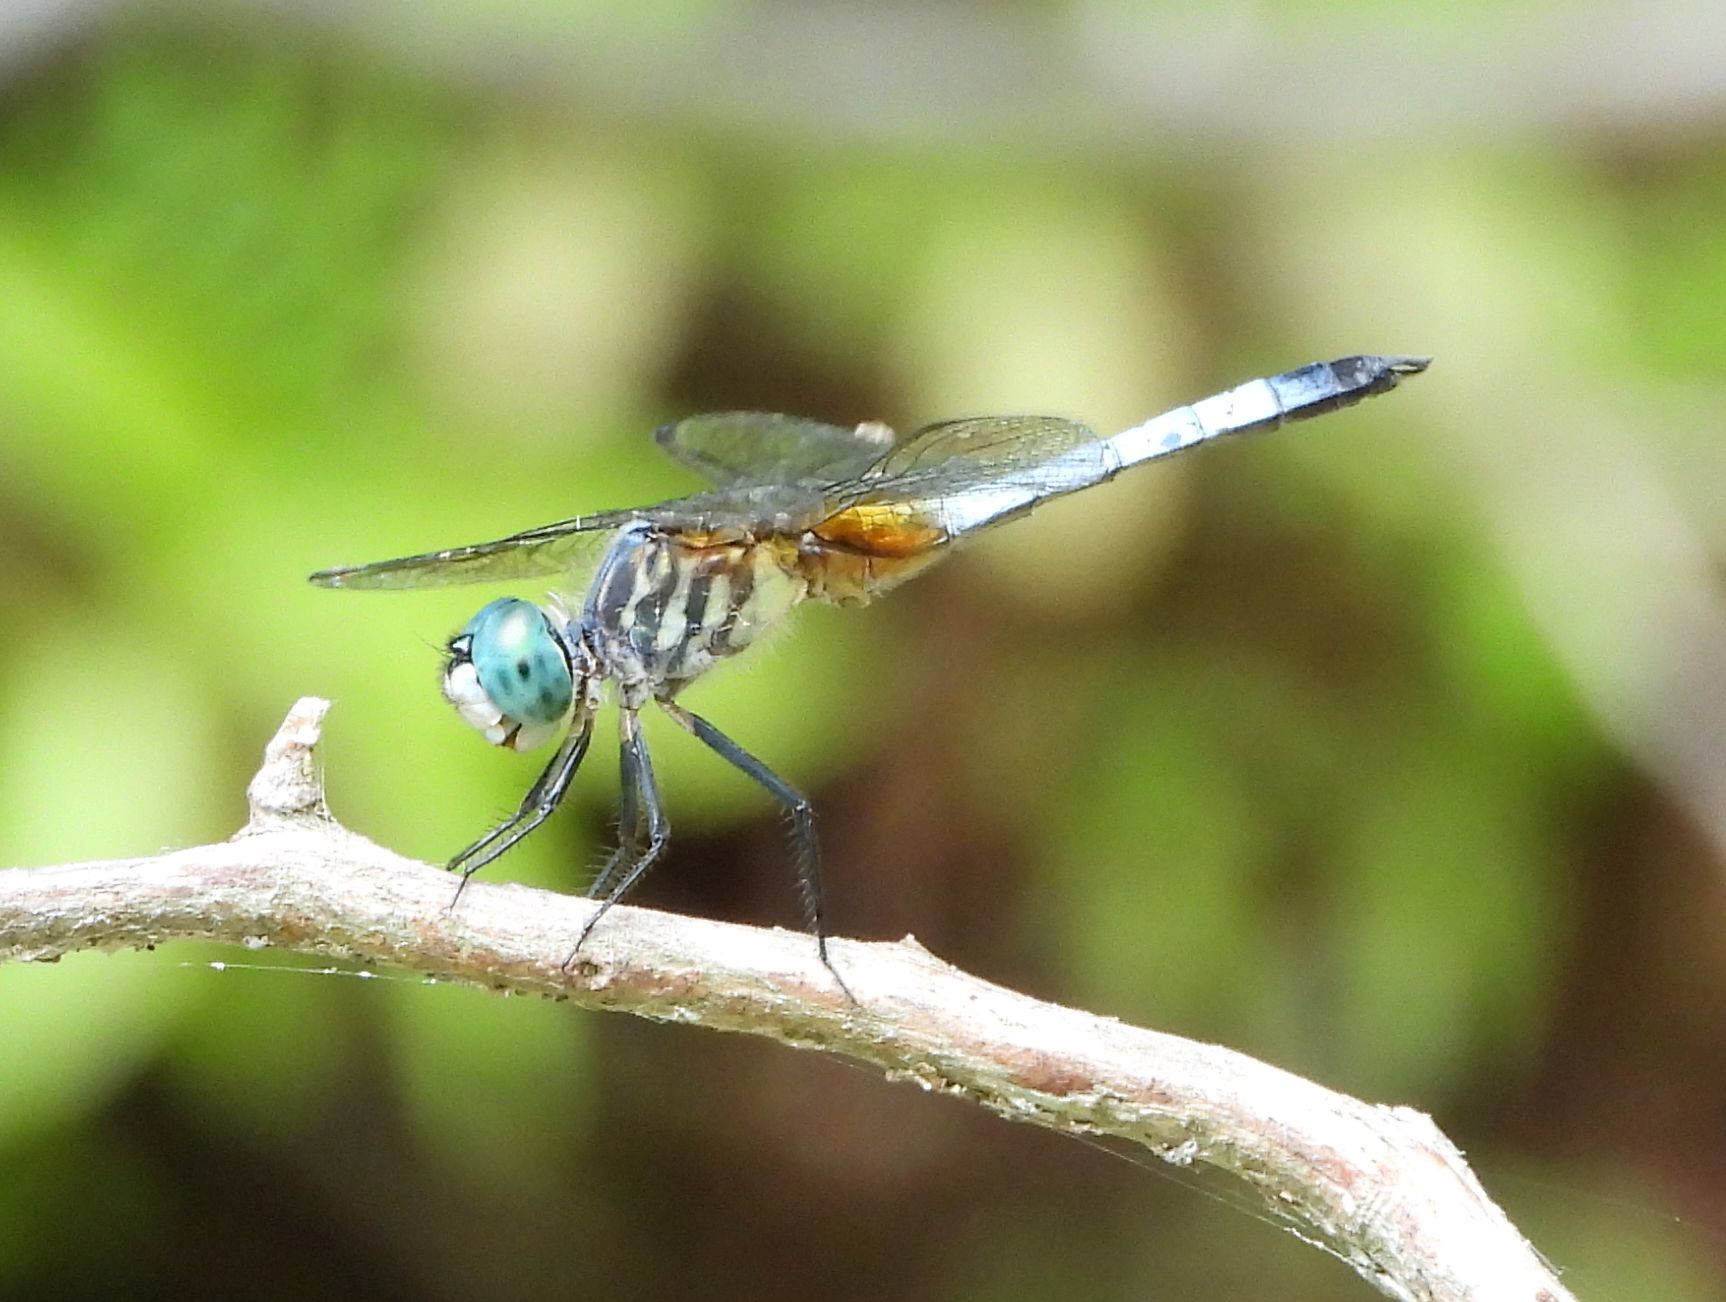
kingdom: Animalia
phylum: Arthropoda
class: Insecta
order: Odonata
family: Libellulidae
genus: Pachydiplax
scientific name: Pachydiplax longipennis
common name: Blue dasher
